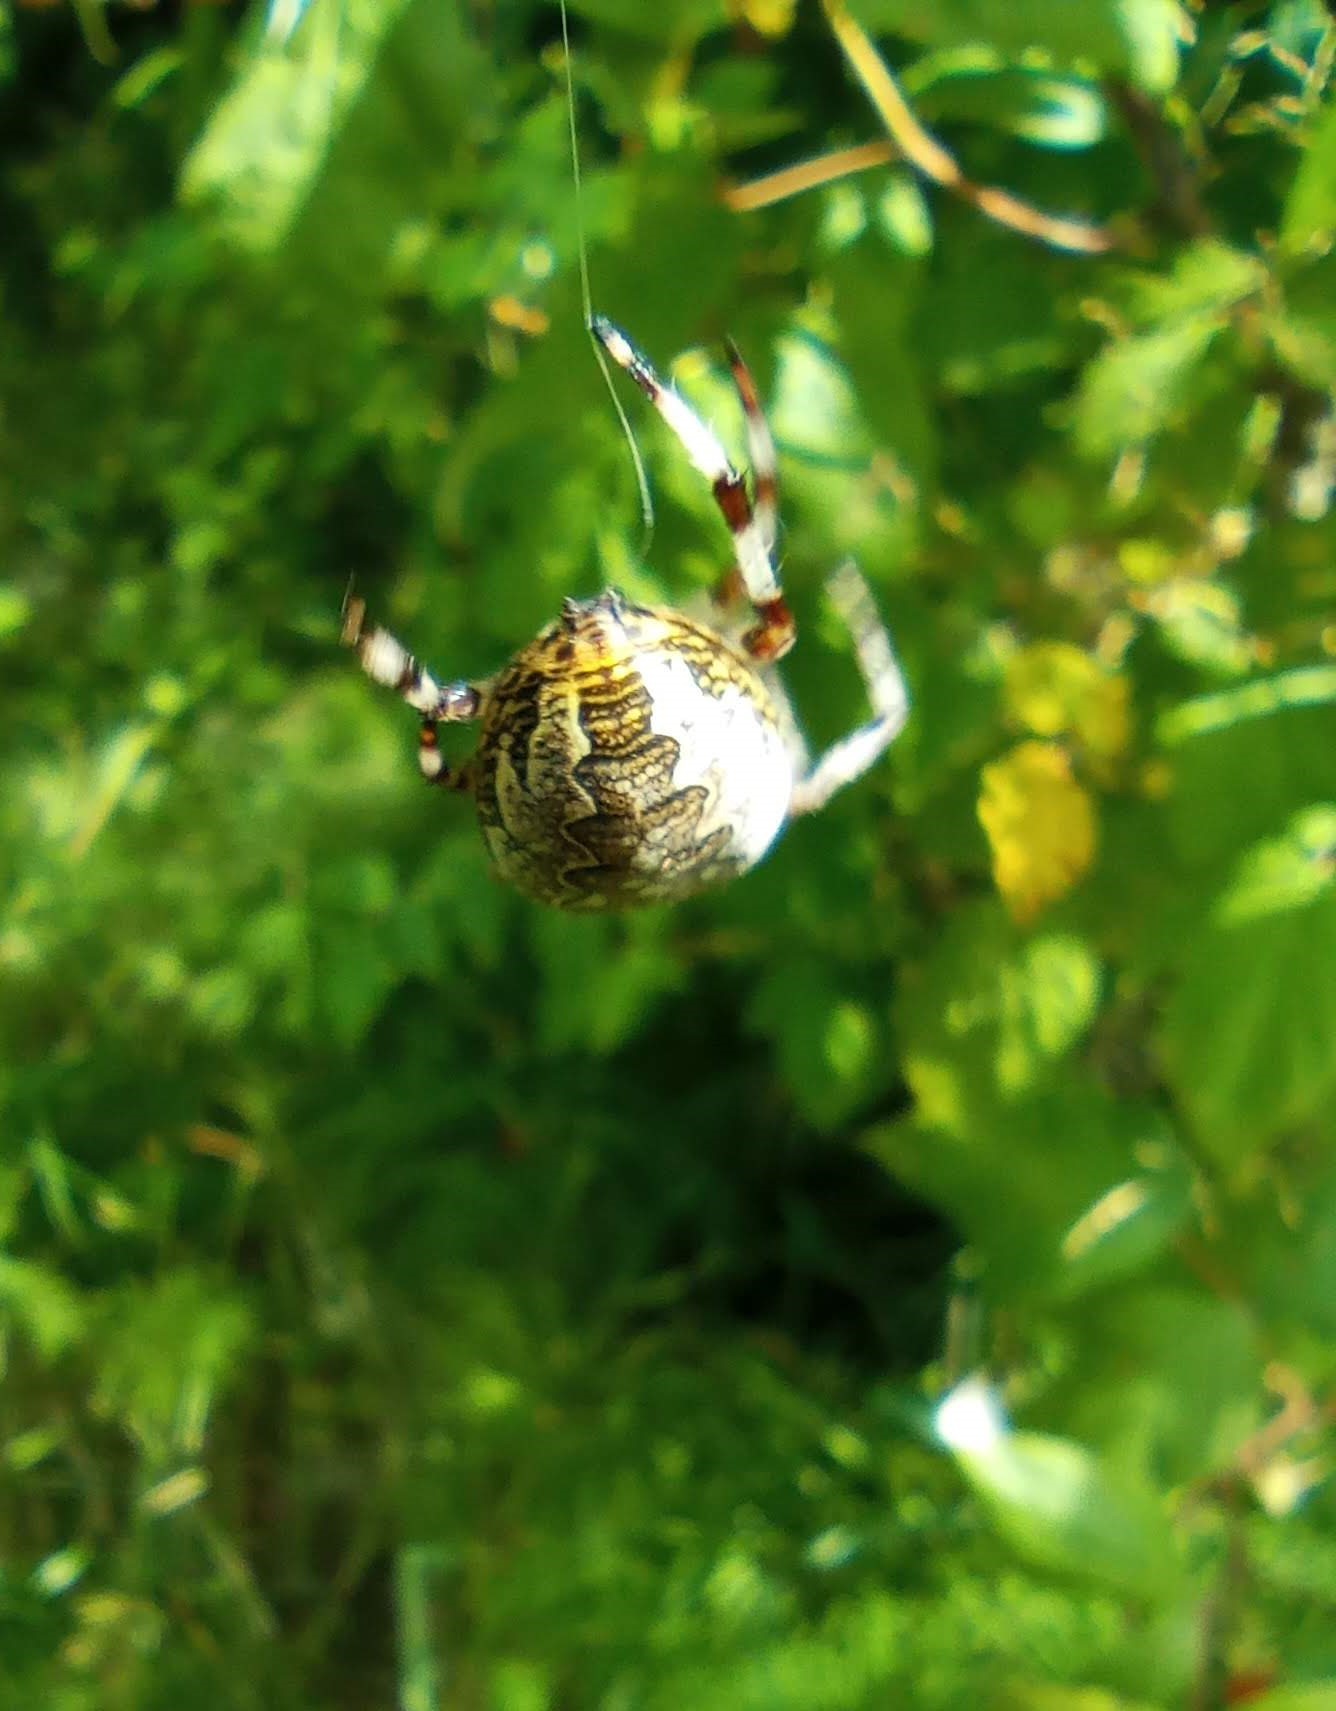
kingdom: Animalia
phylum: Arthropoda
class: Arachnida
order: Araneae
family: Araneidae
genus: Araneus
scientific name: Araneus marmoreus
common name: Marbled orbweaver
